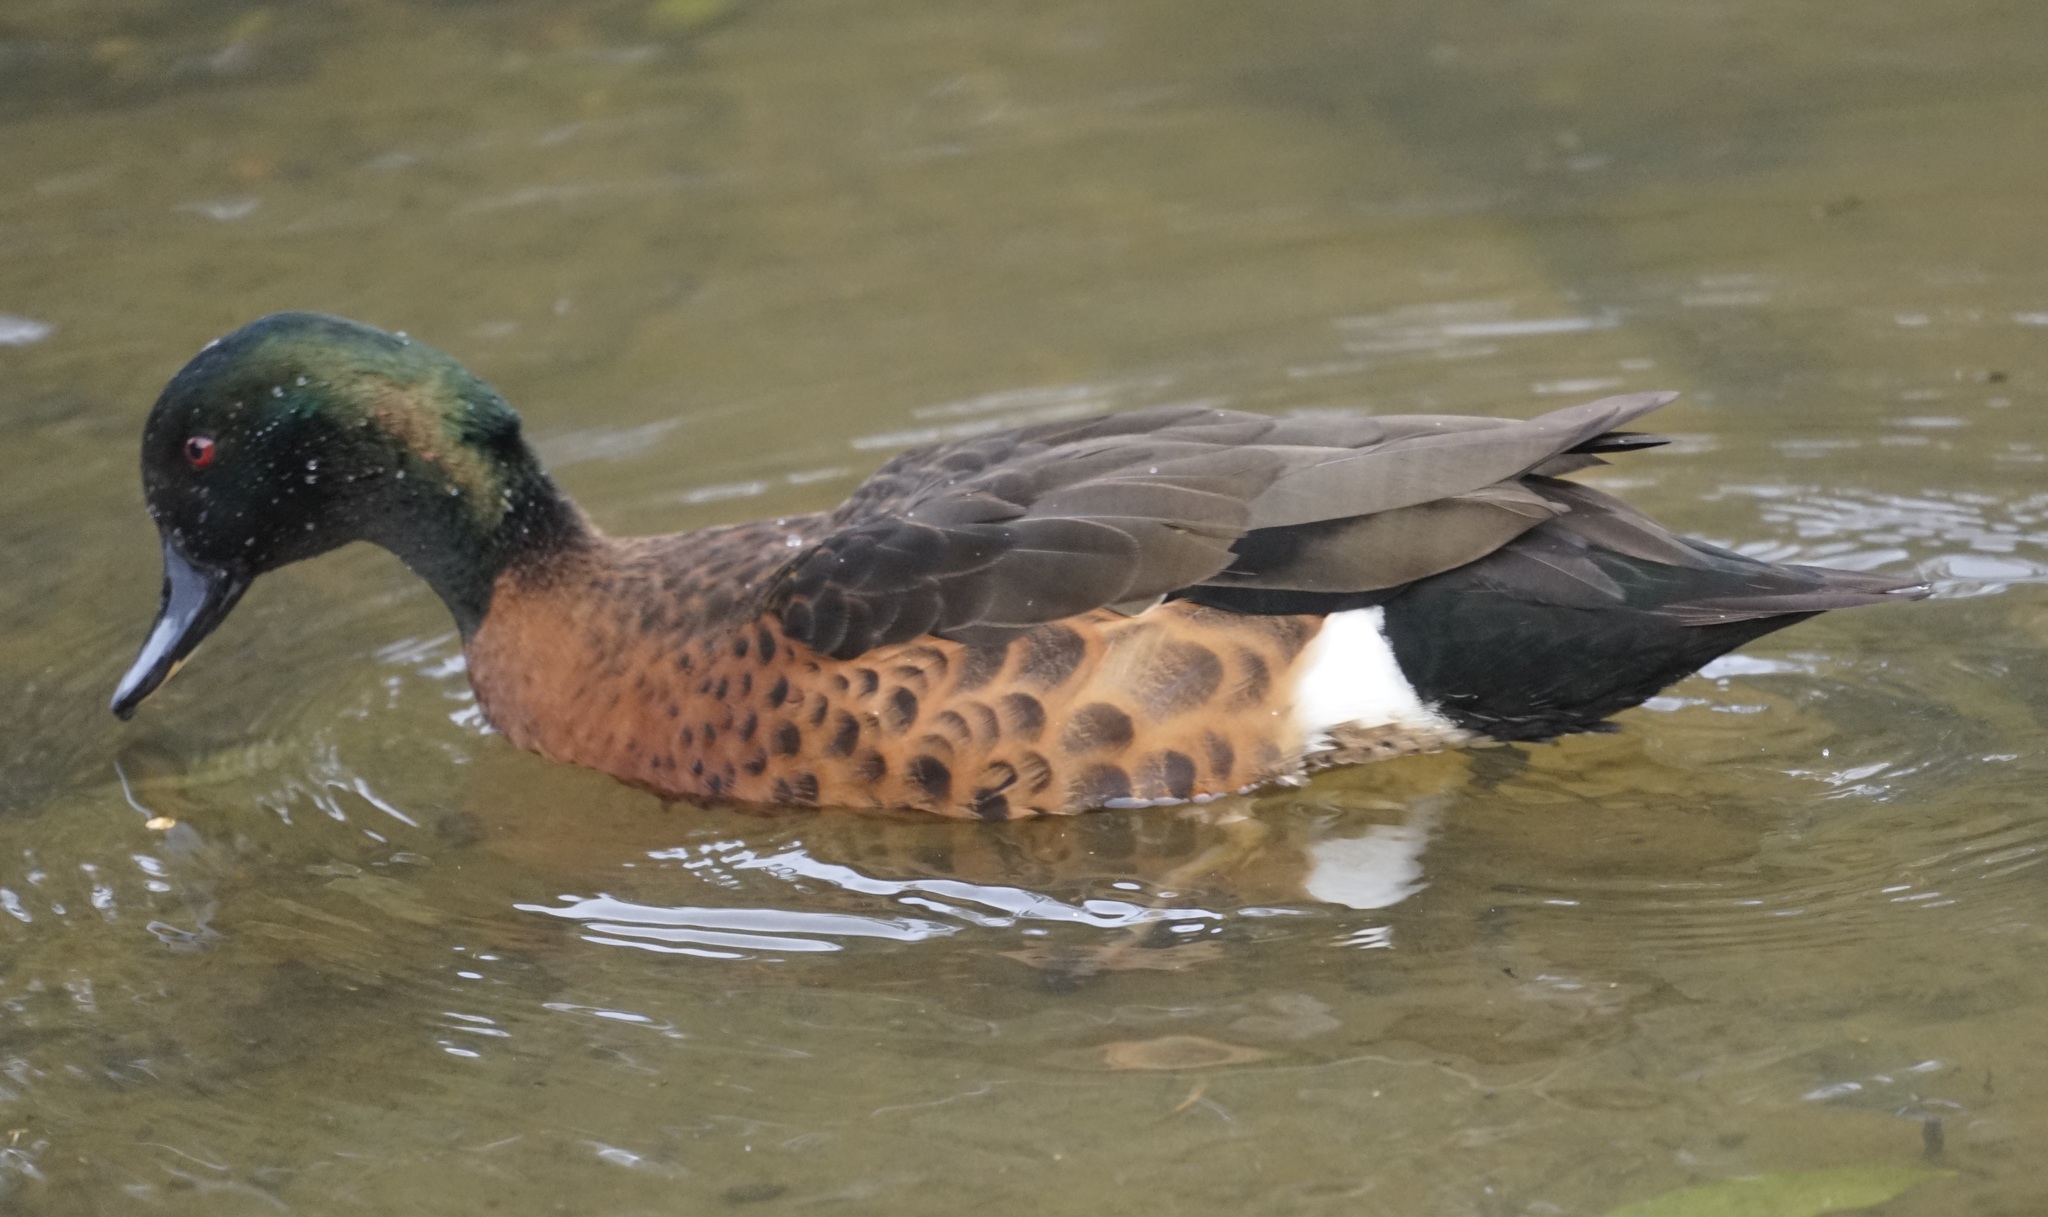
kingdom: Animalia
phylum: Chordata
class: Aves
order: Anseriformes
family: Anatidae
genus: Anas
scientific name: Anas castanea
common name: Chestnut teal
